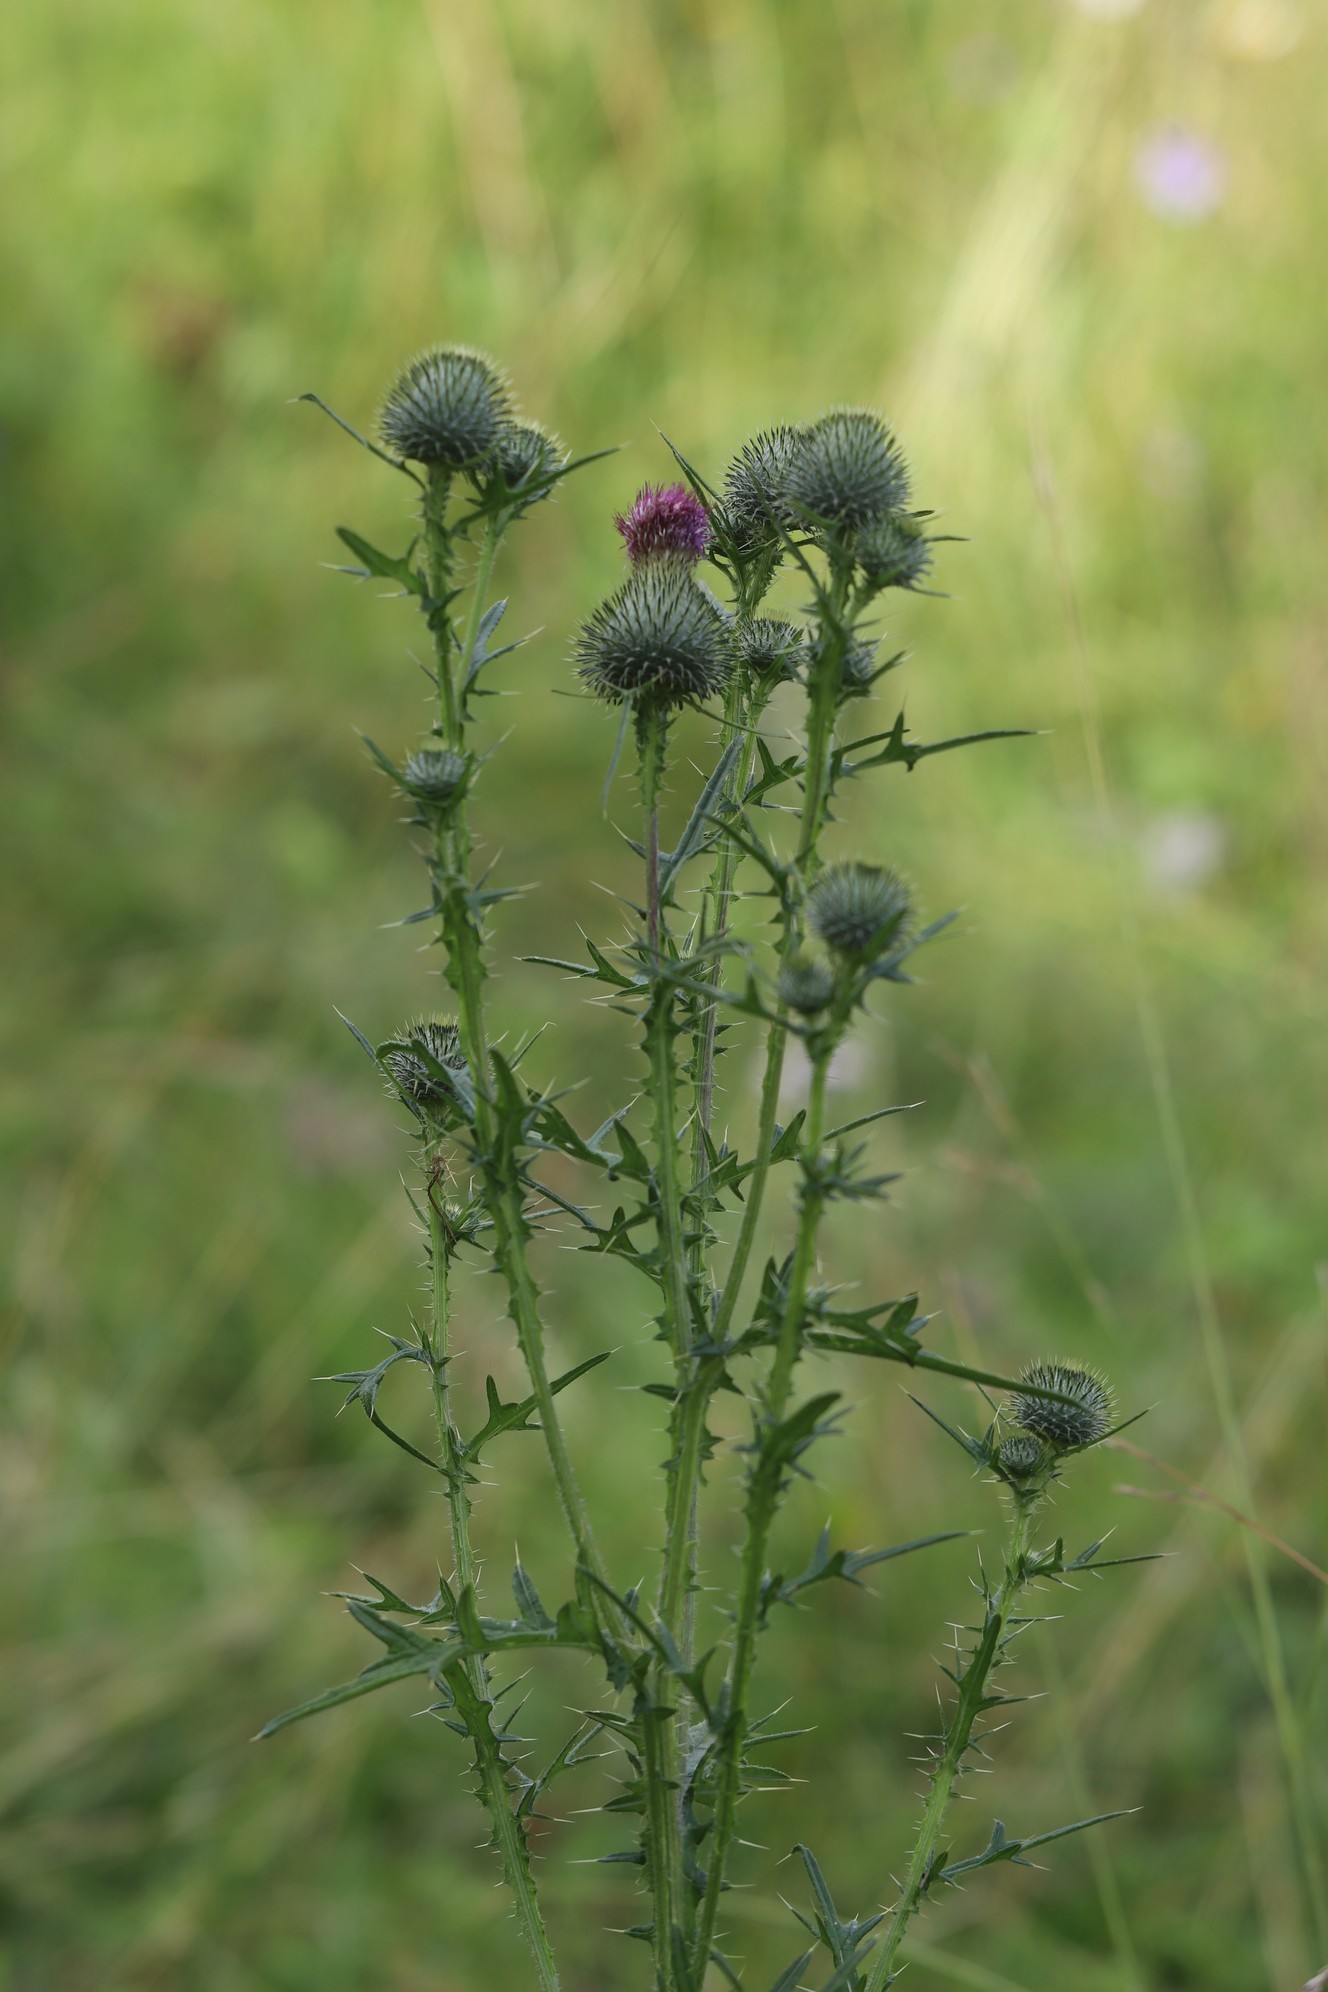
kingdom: Plantae
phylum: Tracheophyta
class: Magnoliopsida
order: Asterales
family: Asteraceae
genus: Cirsium
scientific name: Cirsium vulgare
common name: Bull thistle
